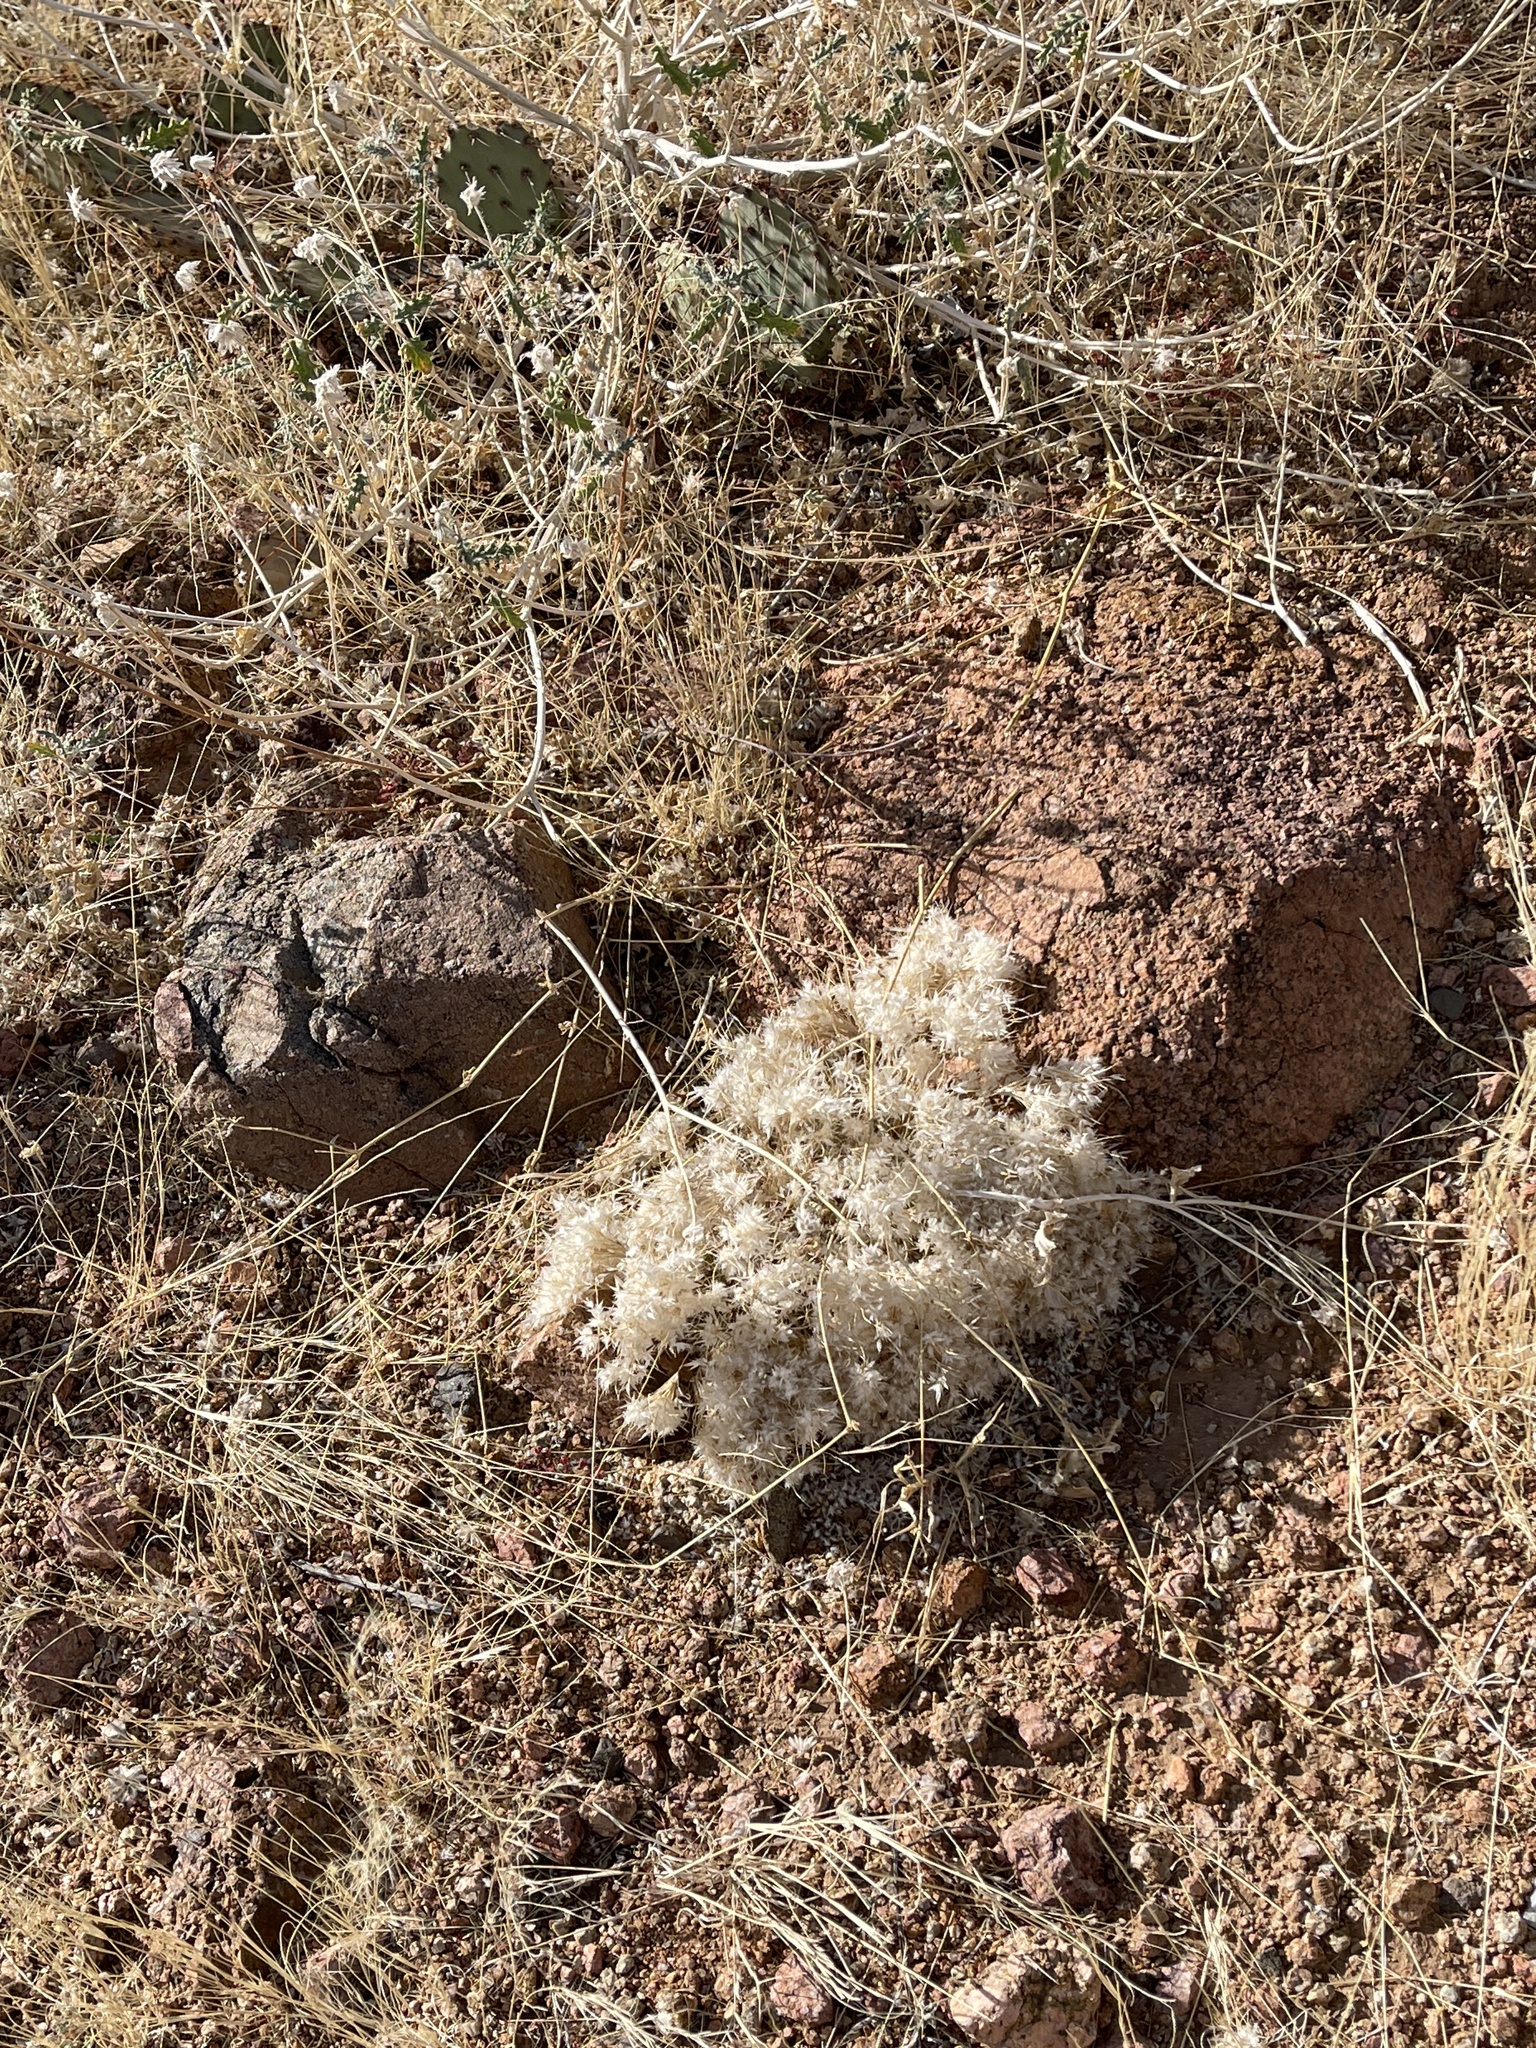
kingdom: Plantae
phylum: Tracheophyta
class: Liliopsida
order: Poales
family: Poaceae
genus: Dasyochloa
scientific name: Dasyochloa pulchella
